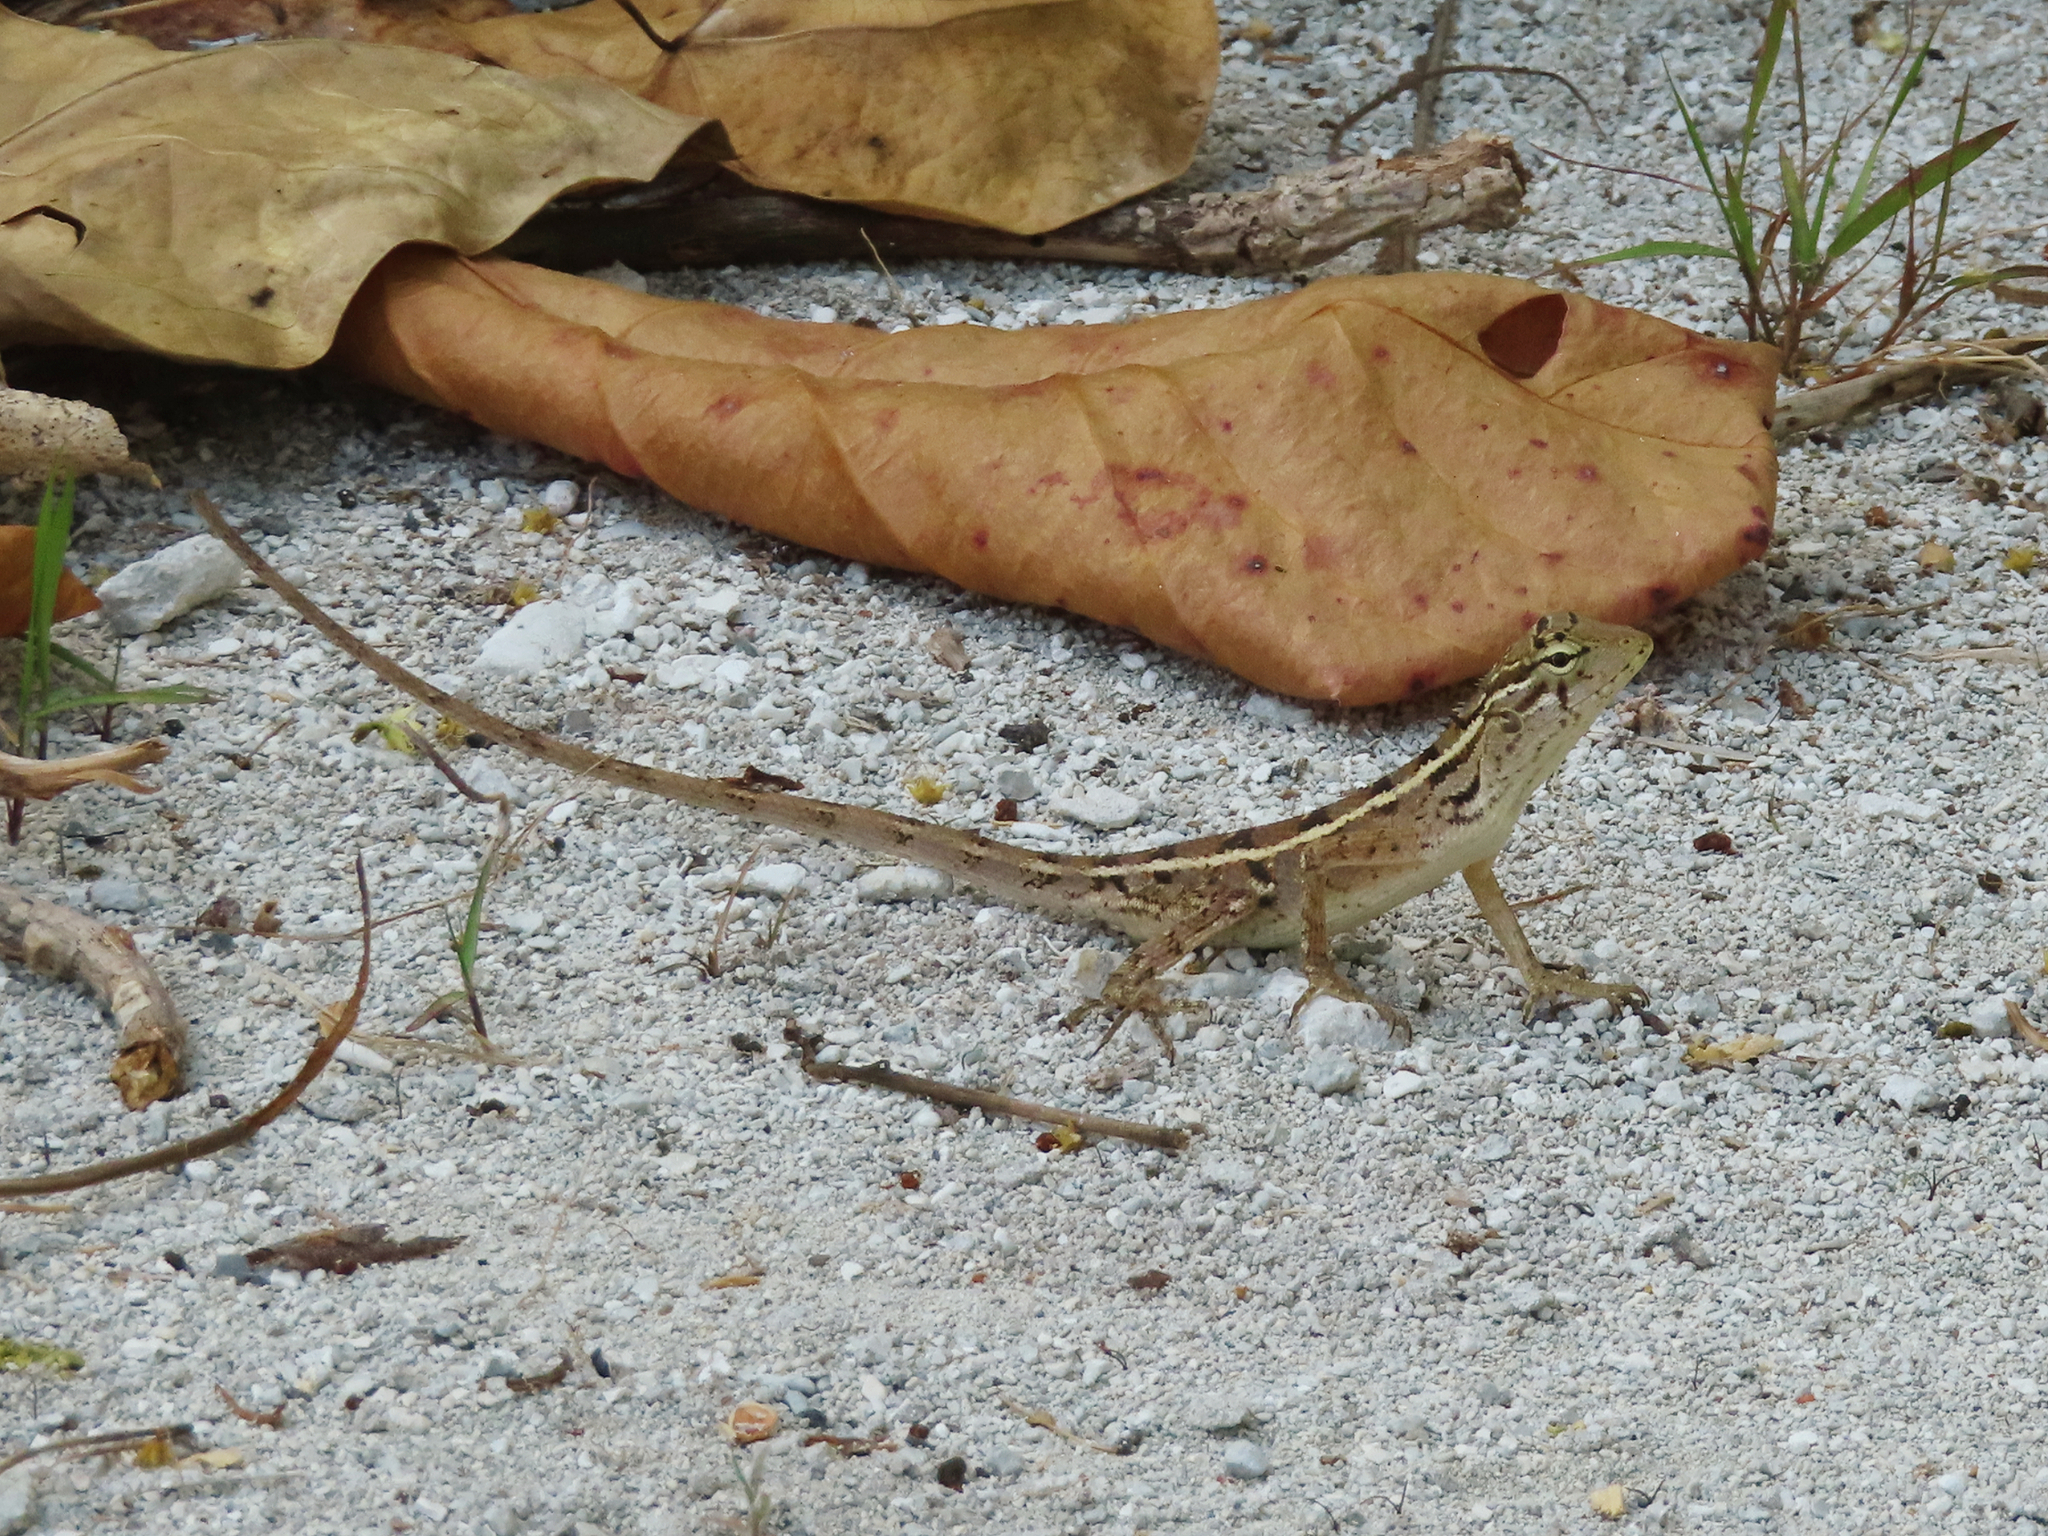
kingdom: Animalia
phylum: Chordata
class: Squamata
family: Agamidae
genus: Calotes
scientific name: Calotes versicolor
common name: Oriental garden lizard
